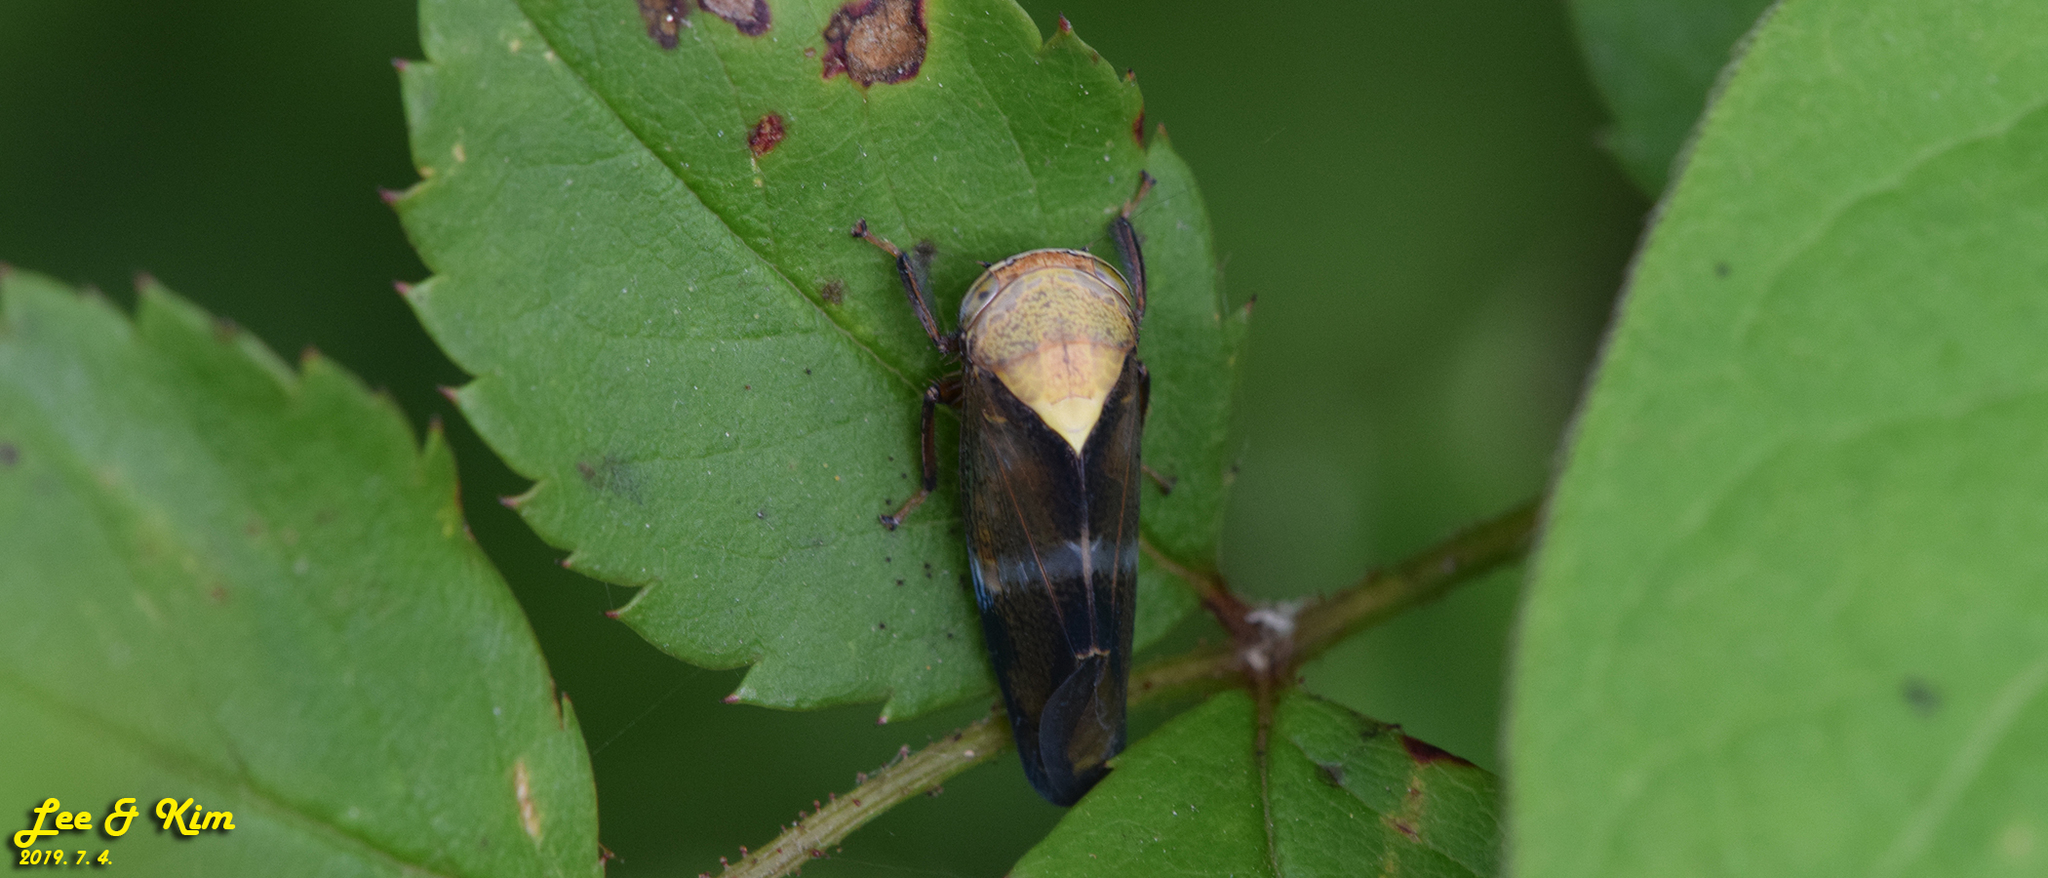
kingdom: Animalia
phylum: Arthropoda
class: Insecta
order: Hemiptera
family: Cicadellidae
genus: Drabescus
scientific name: Drabescus limbaticeps
